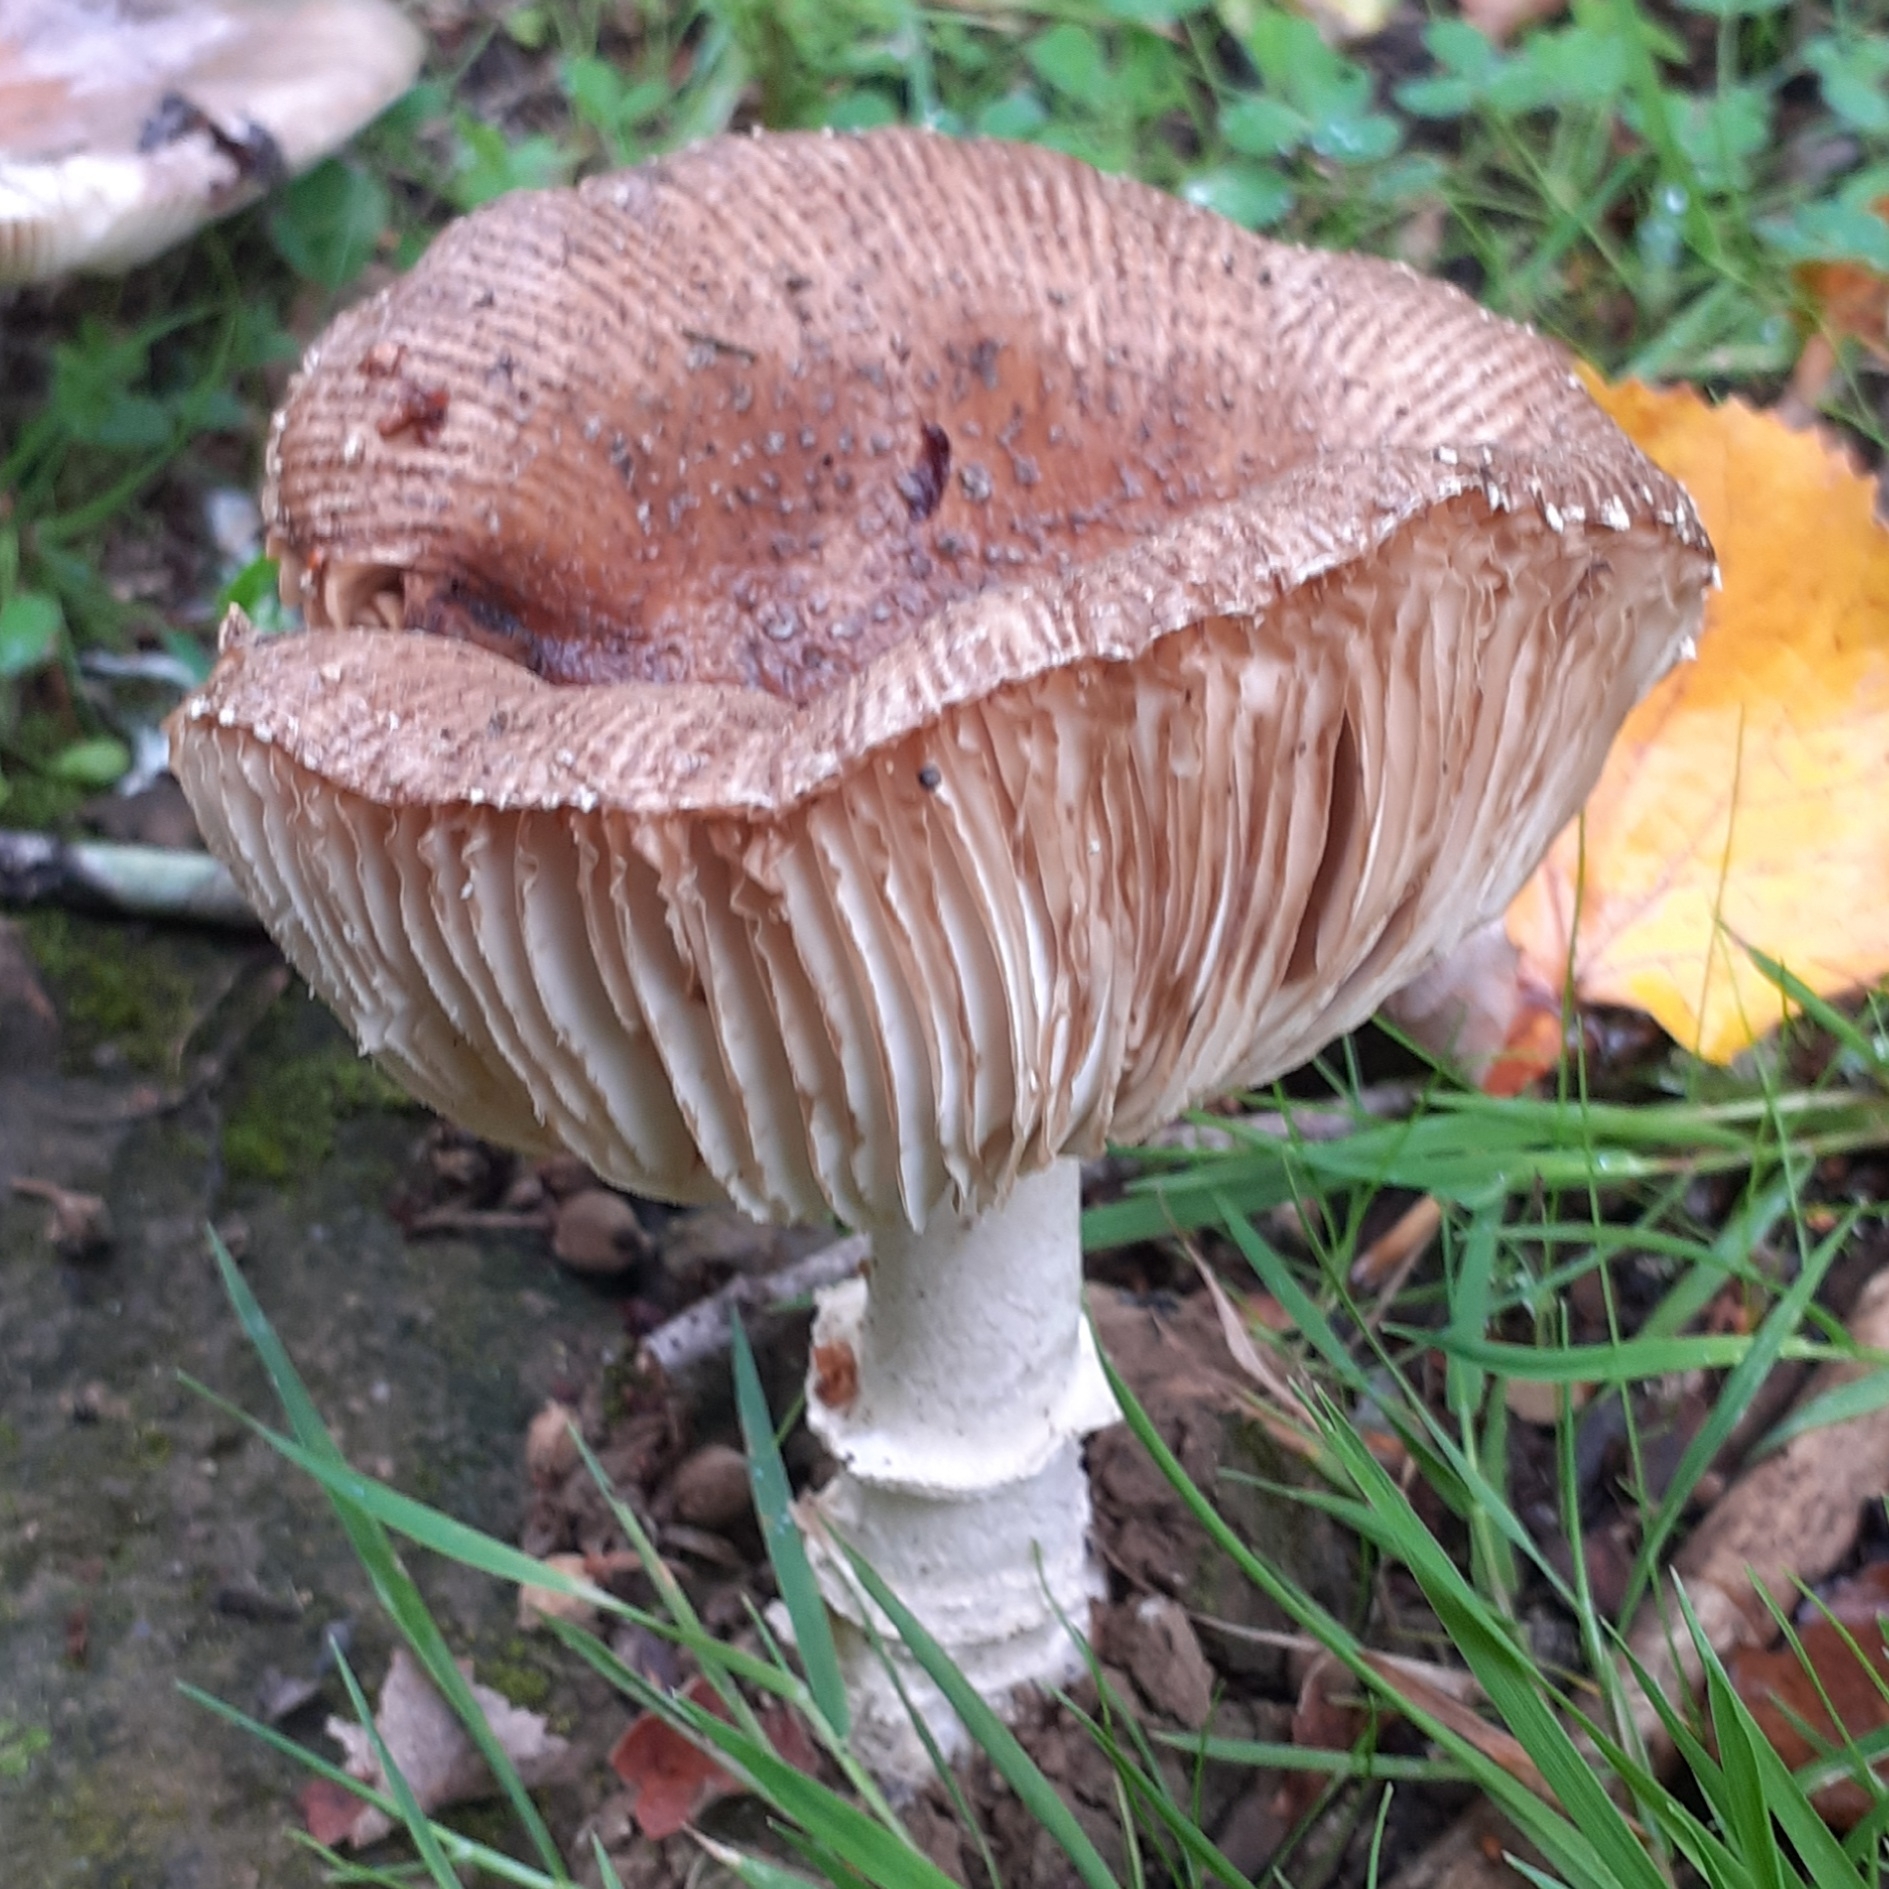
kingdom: Fungi
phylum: Basidiomycota
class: Agaricomycetes
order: Agaricales
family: Amanitaceae
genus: Amanita
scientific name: Amanita pantherina
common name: Panthercap
